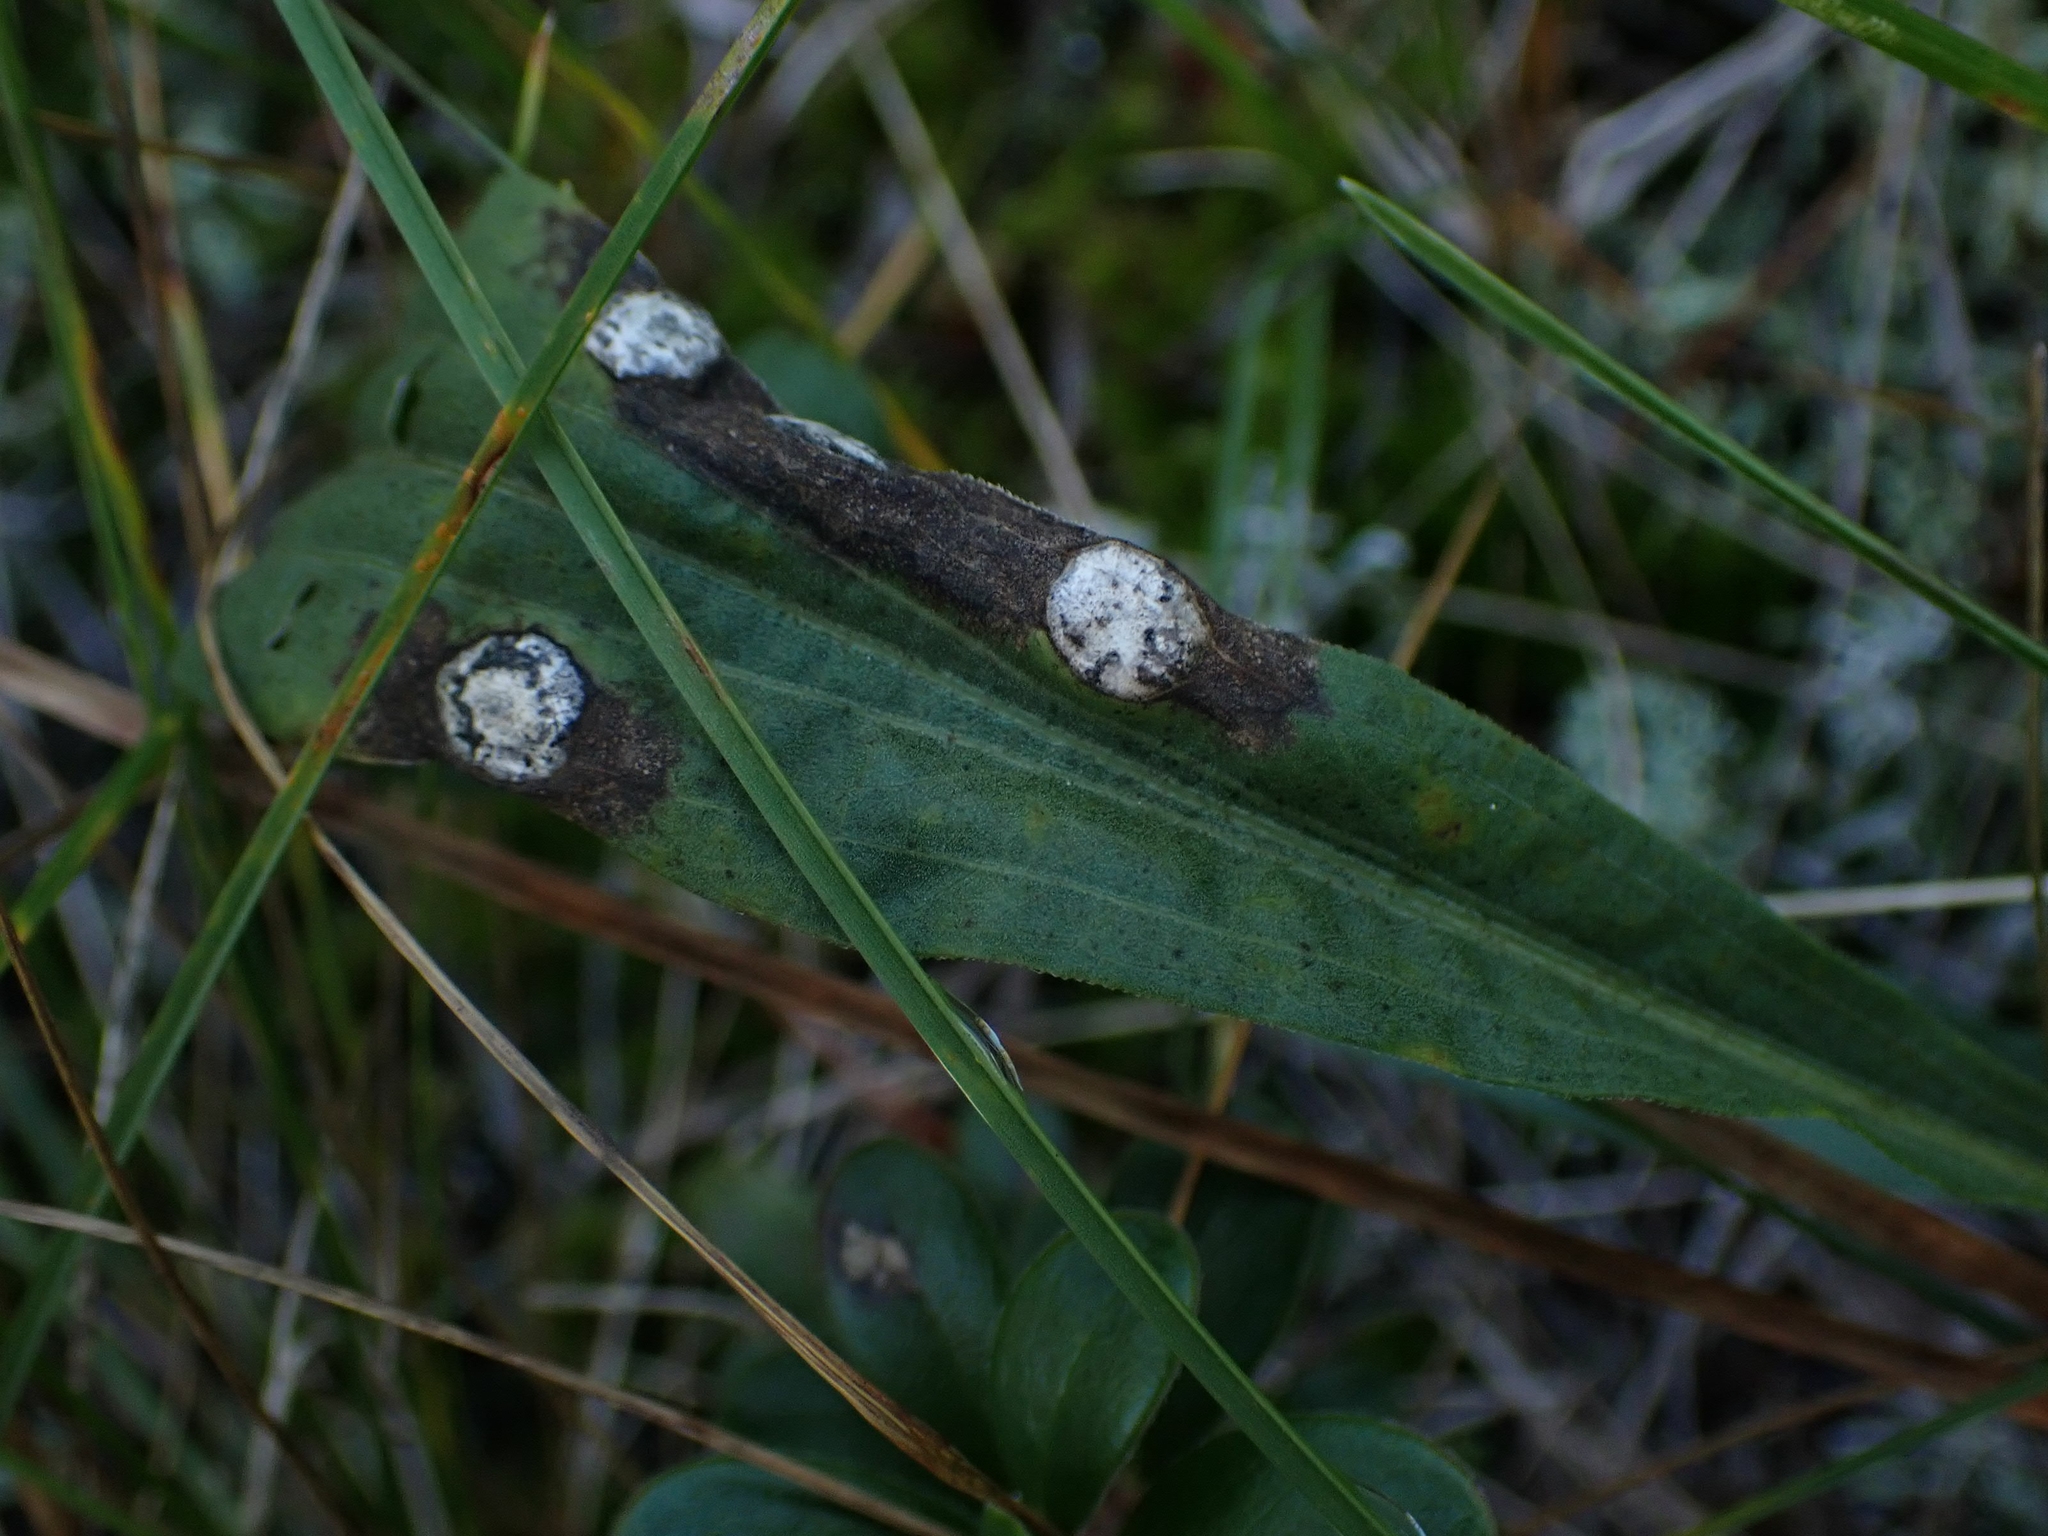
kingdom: Animalia
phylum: Arthropoda
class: Insecta
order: Diptera
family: Cecidomyiidae
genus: Asteromyia
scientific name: Asteromyia carbonifera
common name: Carbonifera goldenrod gall midge
